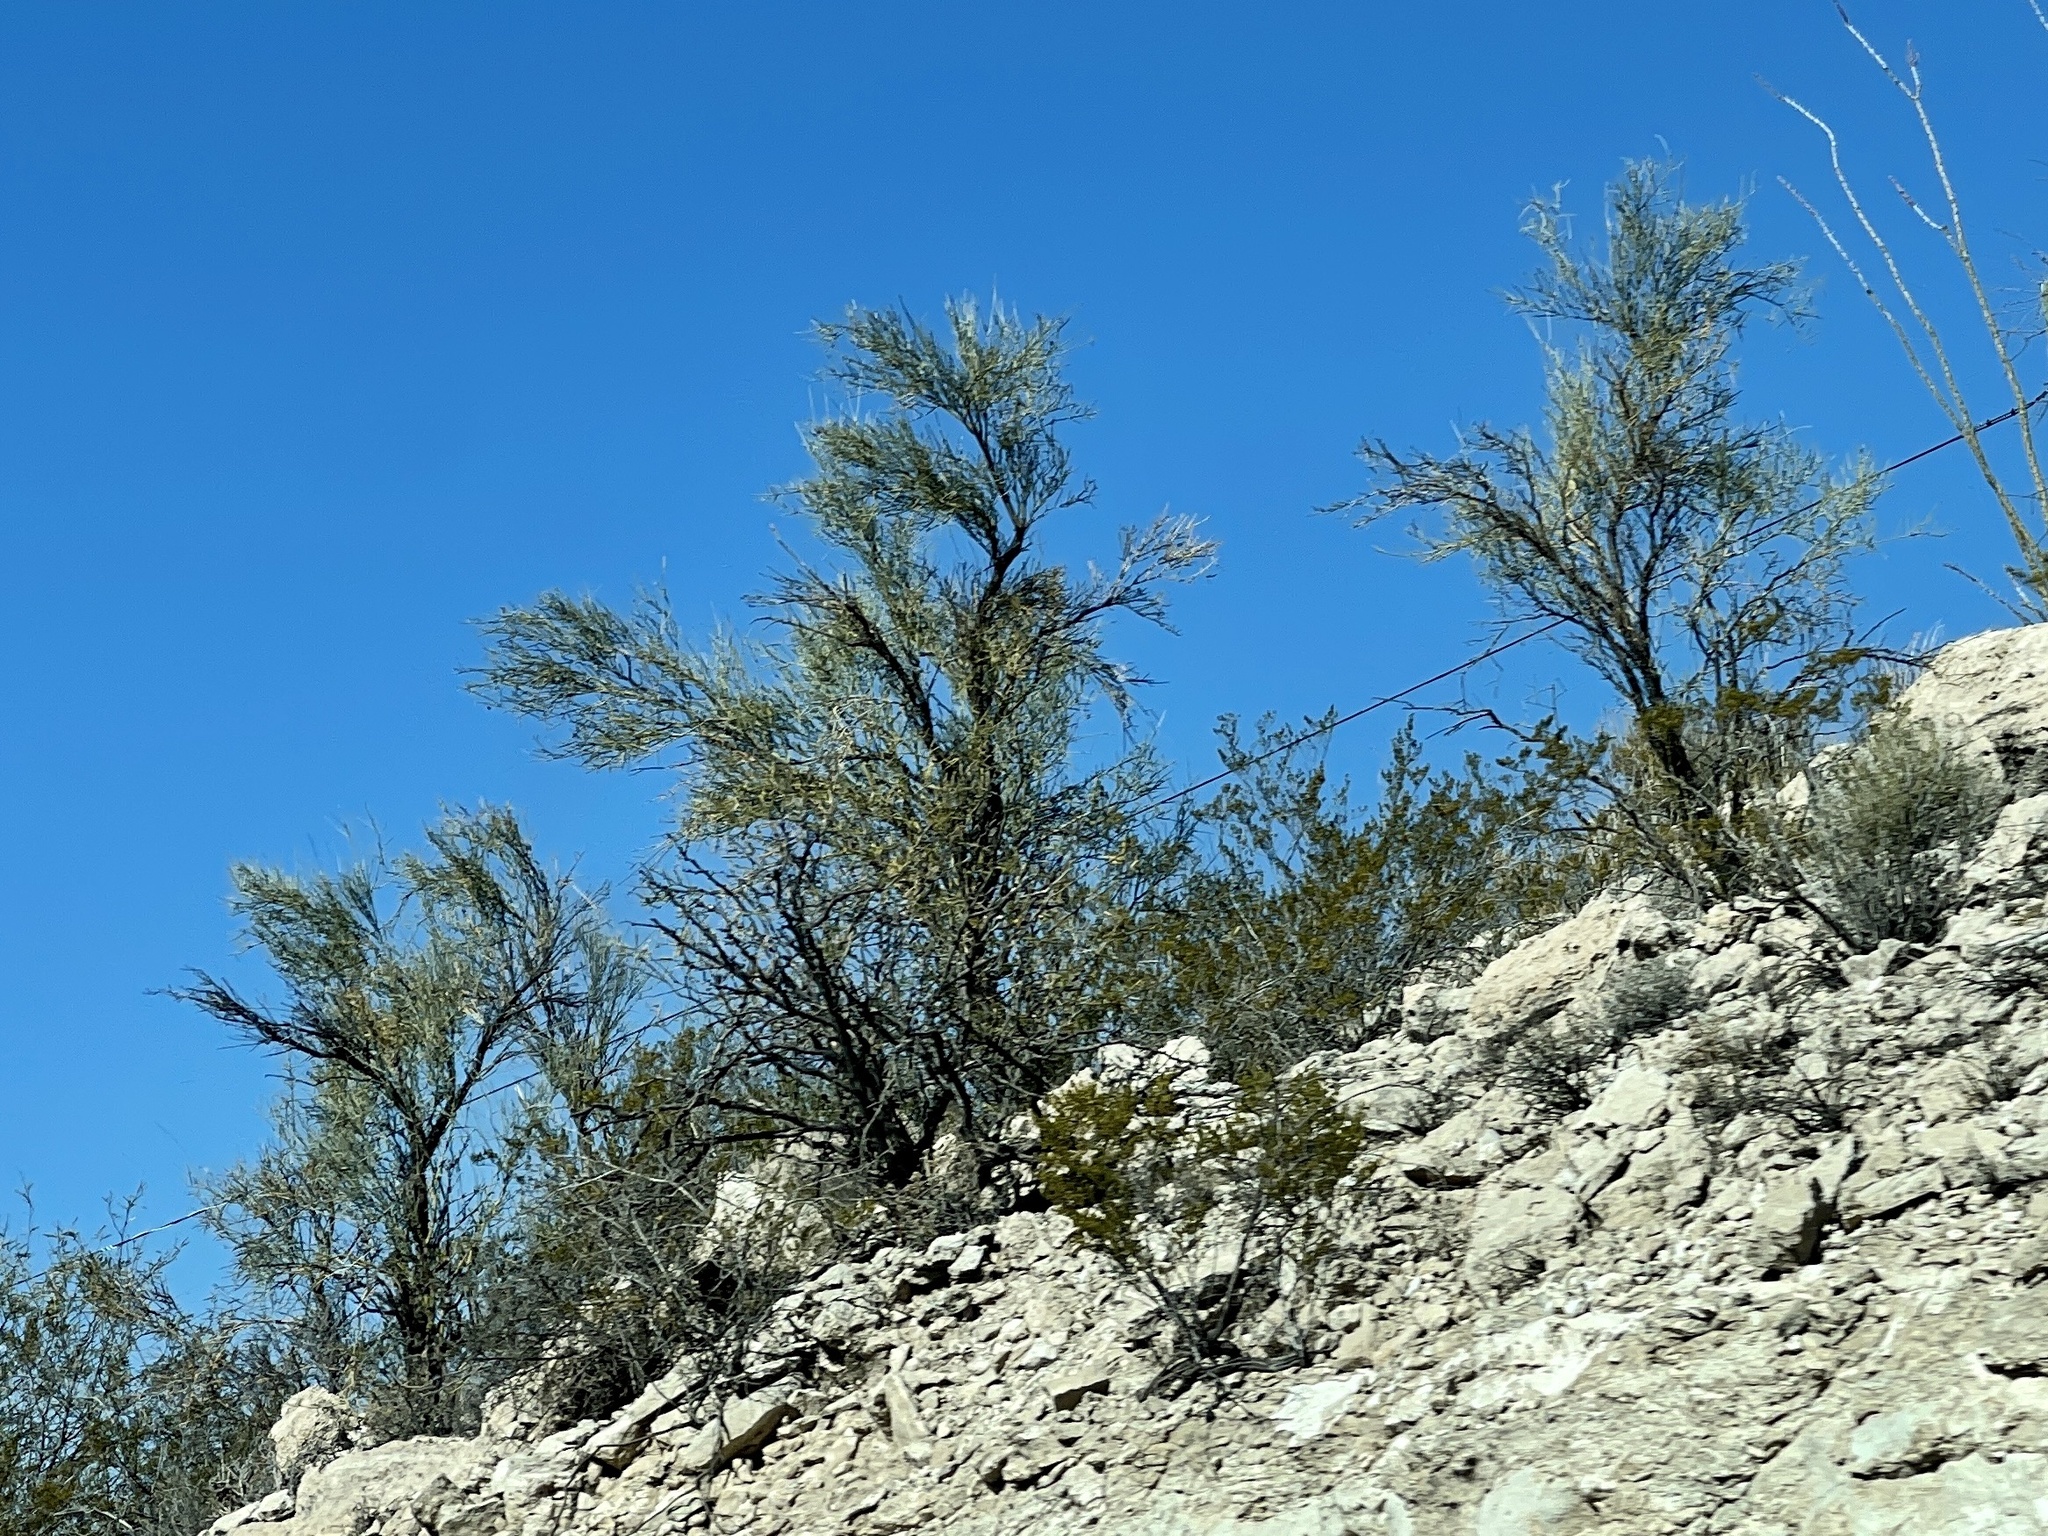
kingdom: Plantae
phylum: Tracheophyta
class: Magnoliopsida
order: Celastrales
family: Celastraceae
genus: Canotia
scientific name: Canotia holacantha
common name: Crucifixion thorns
